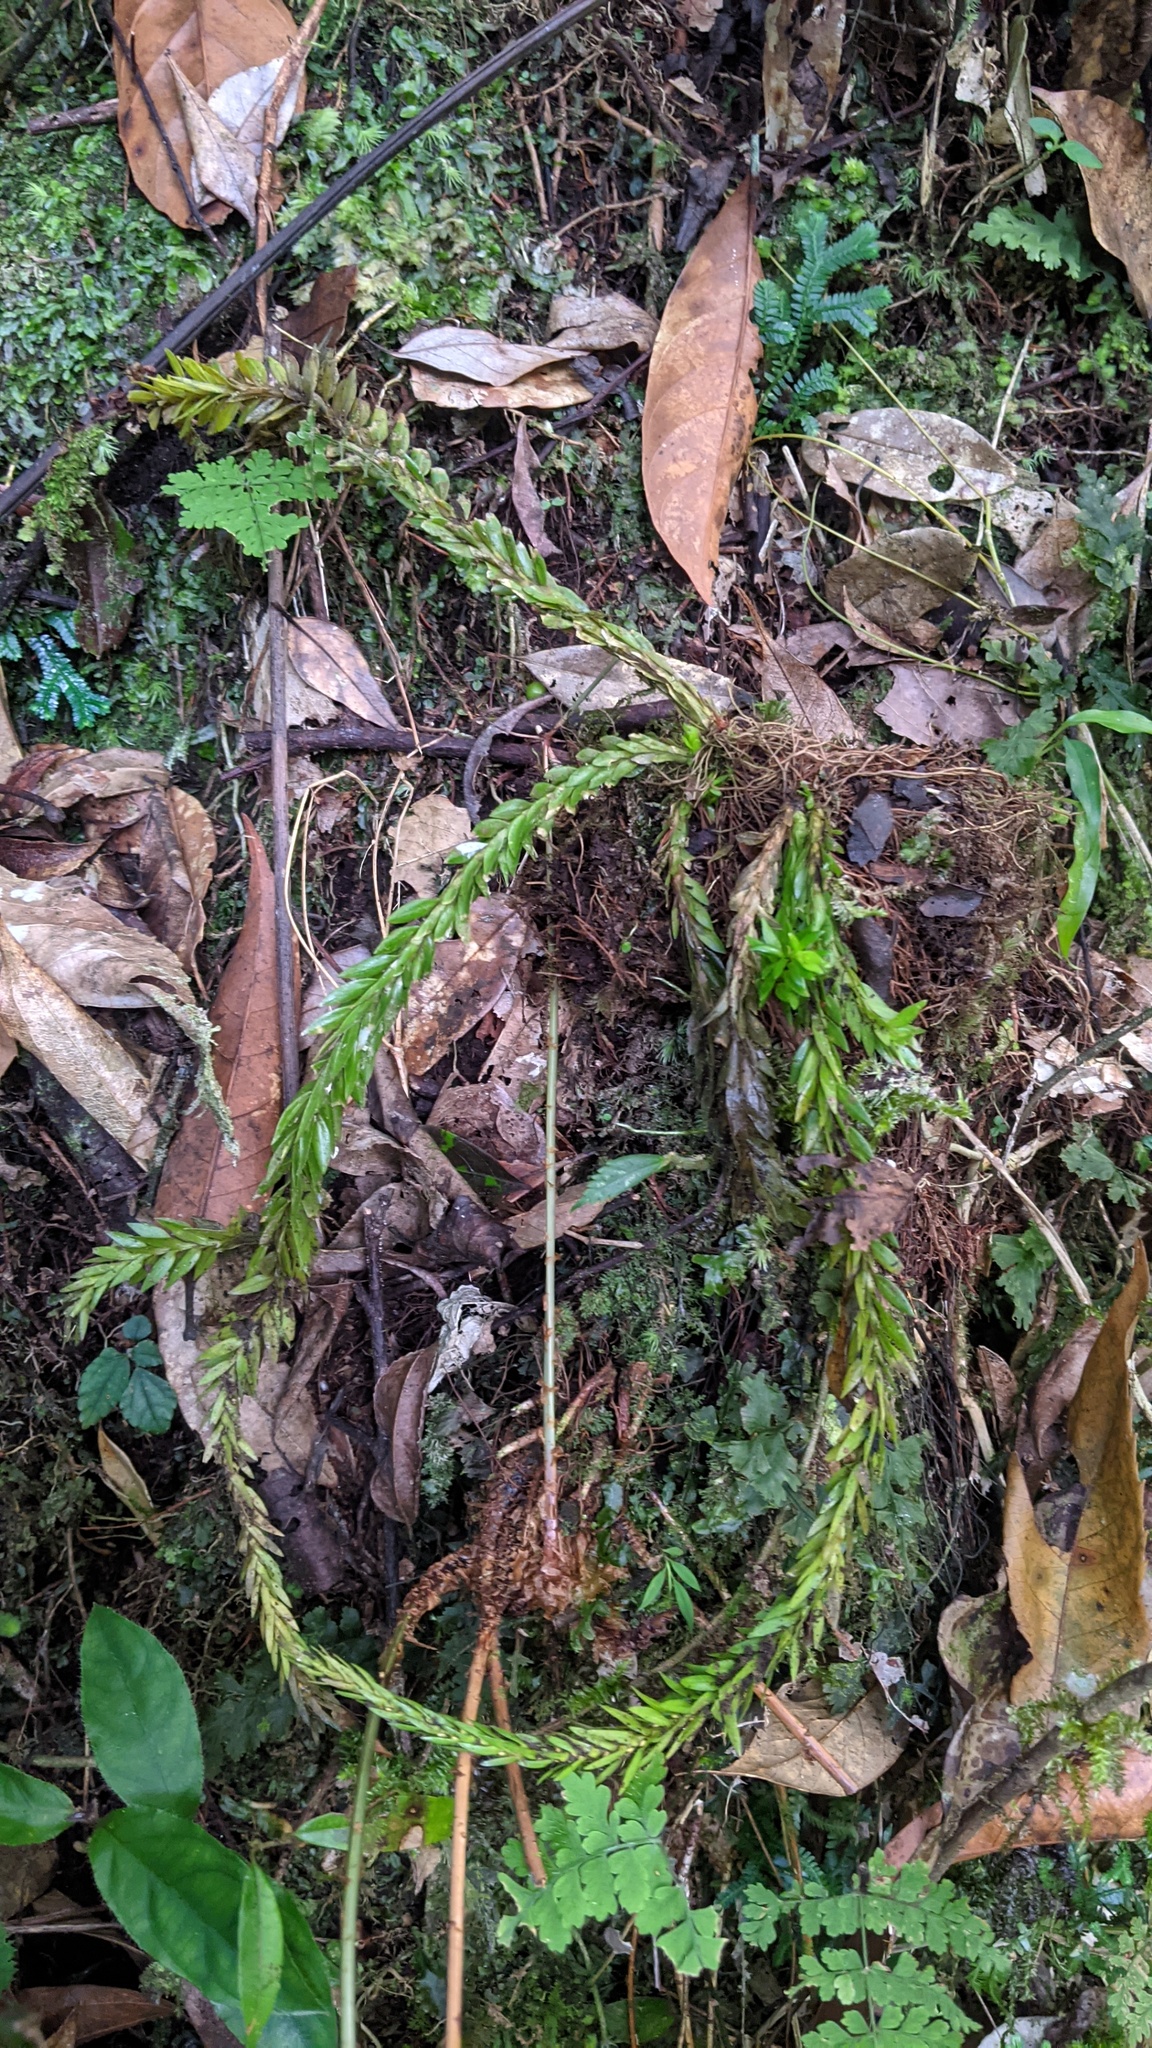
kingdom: Plantae
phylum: Tracheophyta
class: Lycopodiopsida
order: Lycopodiales
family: Lycopodiaceae
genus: Phlegmariurus
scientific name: Phlegmariurus fordii
